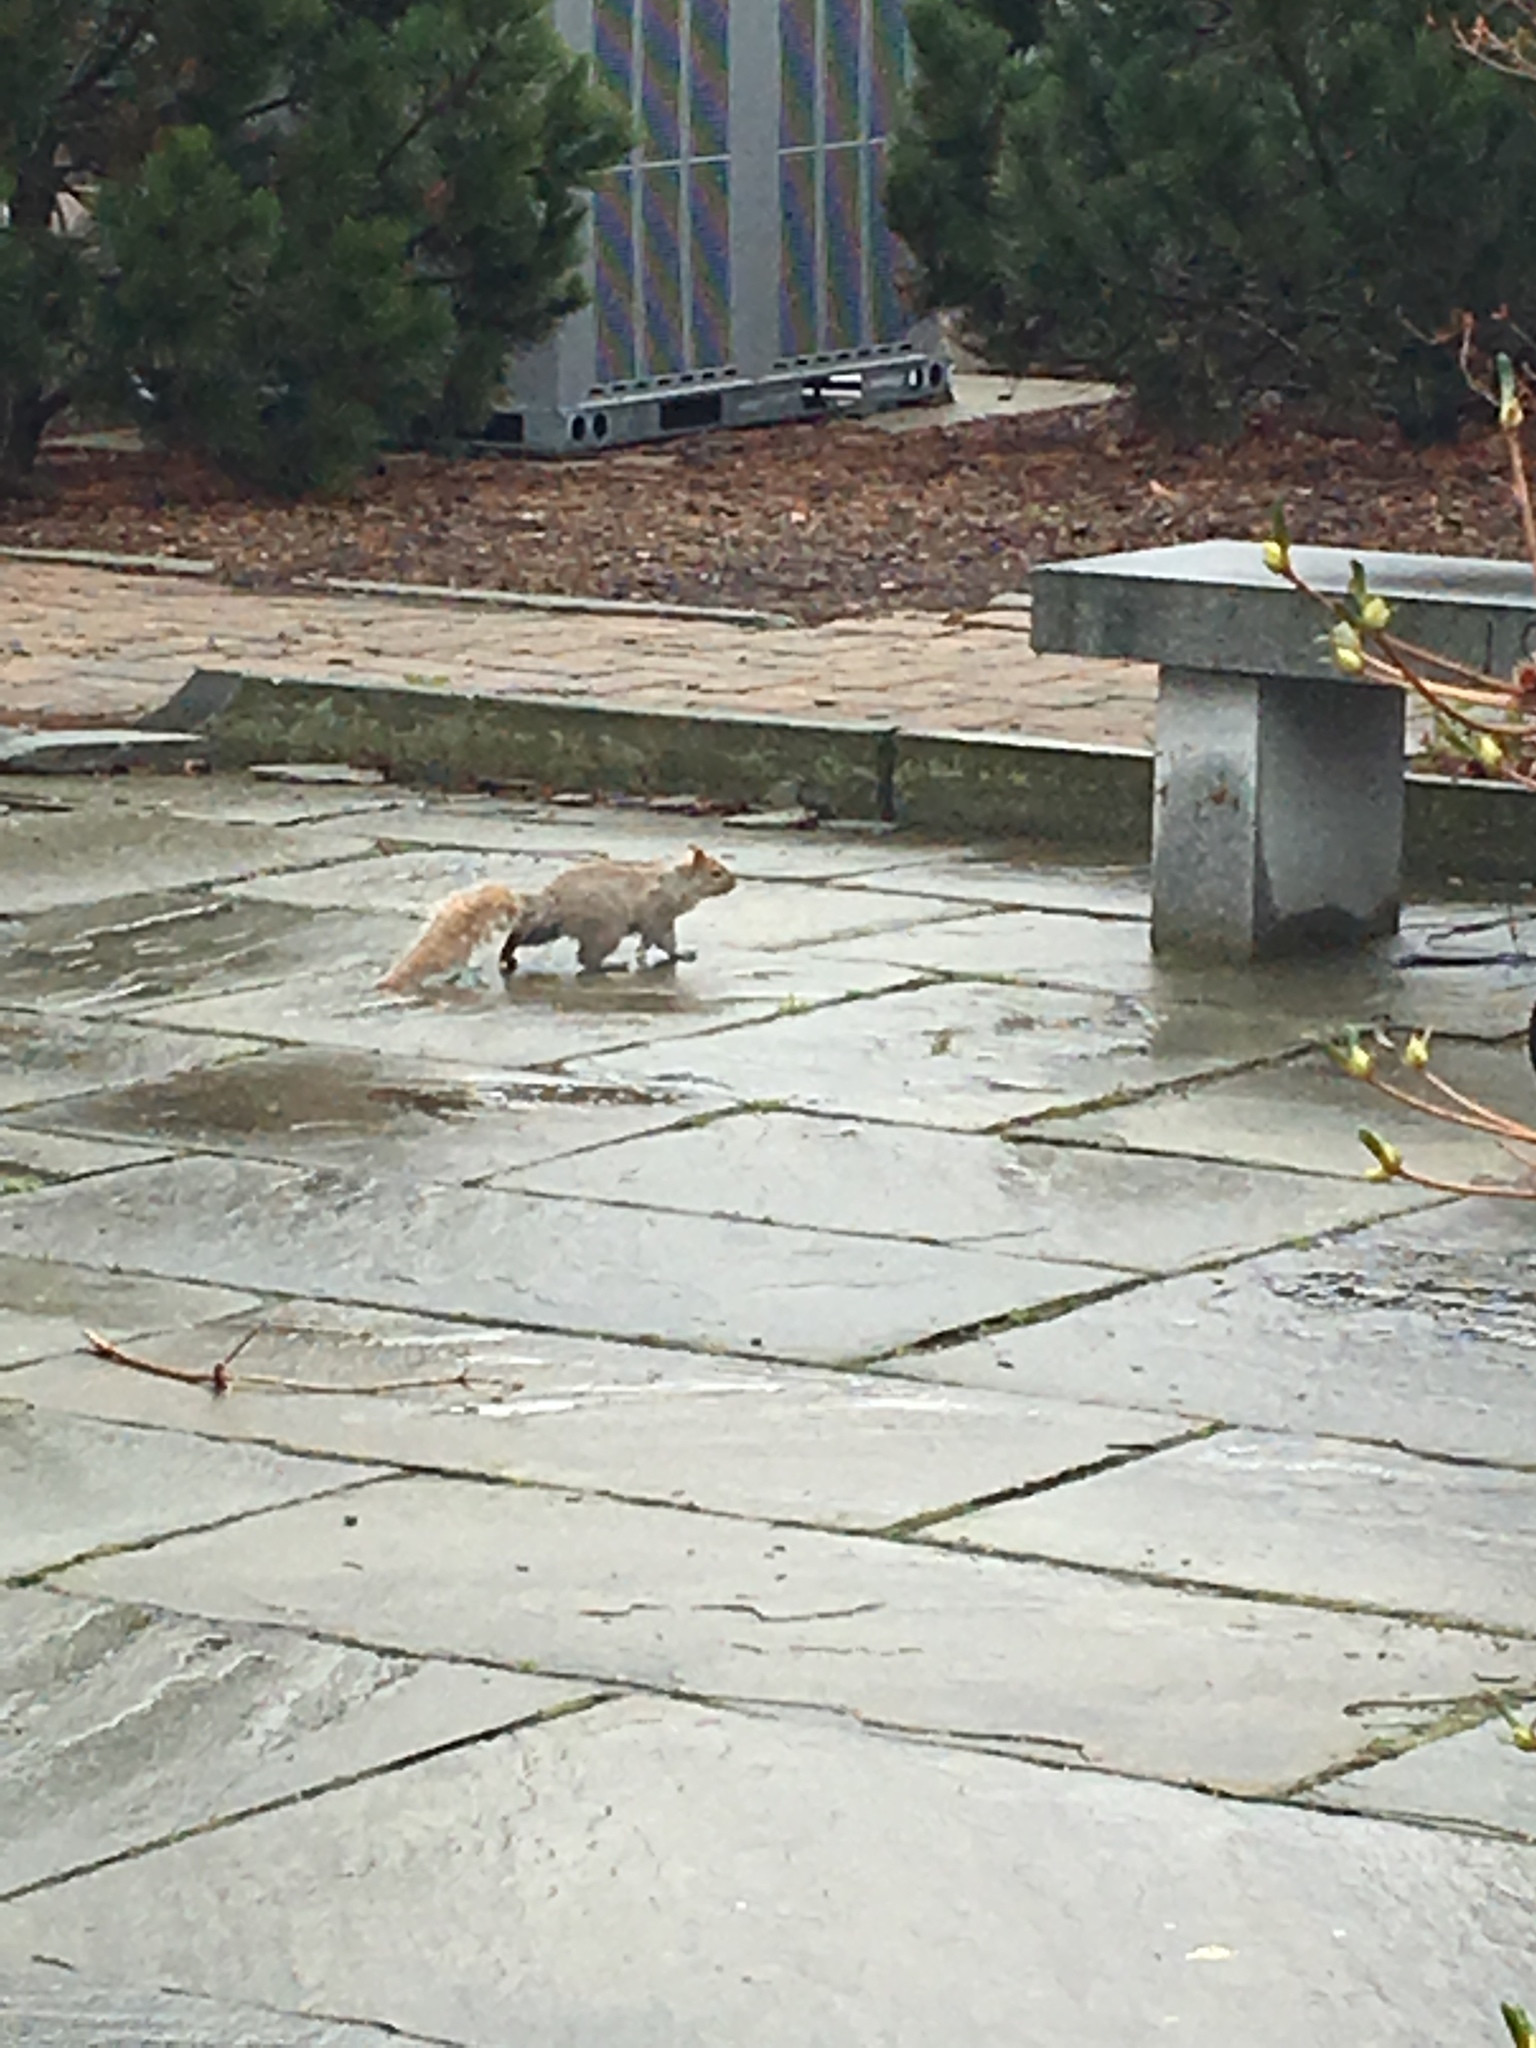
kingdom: Animalia
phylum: Chordata
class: Mammalia
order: Rodentia
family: Sciuridae
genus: Sciurus
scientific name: Sciurus carolinensis
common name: Eastern gray squirrel
